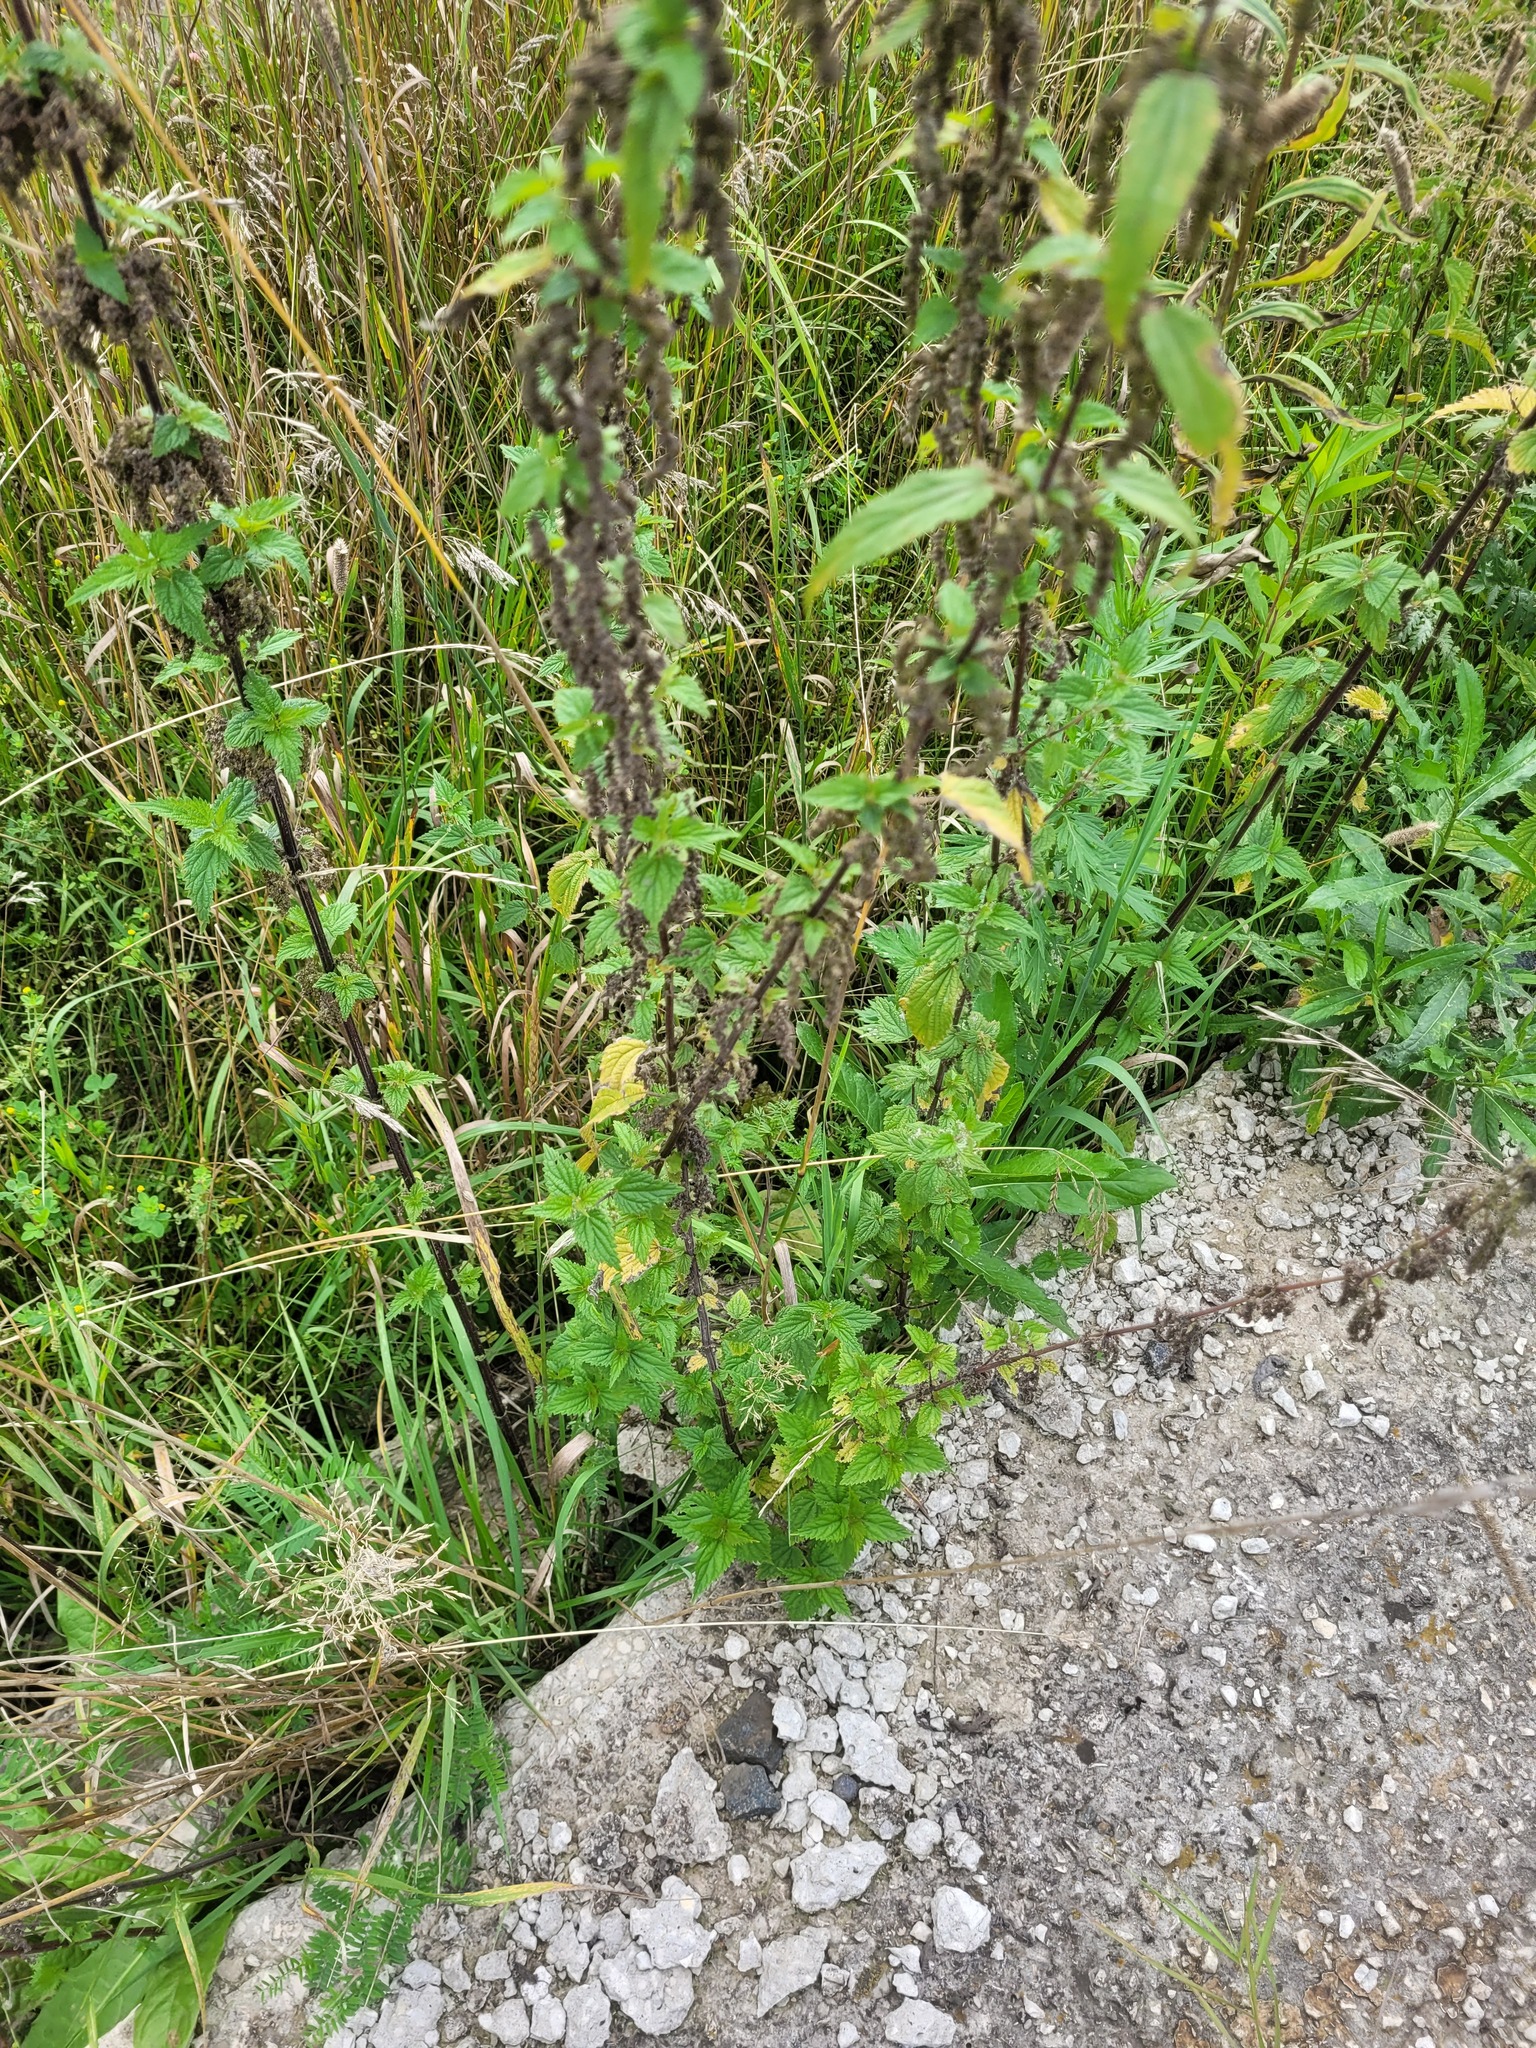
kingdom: Plantae
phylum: Tracheophyta
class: Magnoliopsida
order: Rosales
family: Urticaceae
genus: Urtica
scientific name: Urtica dioica
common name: Common nettle
